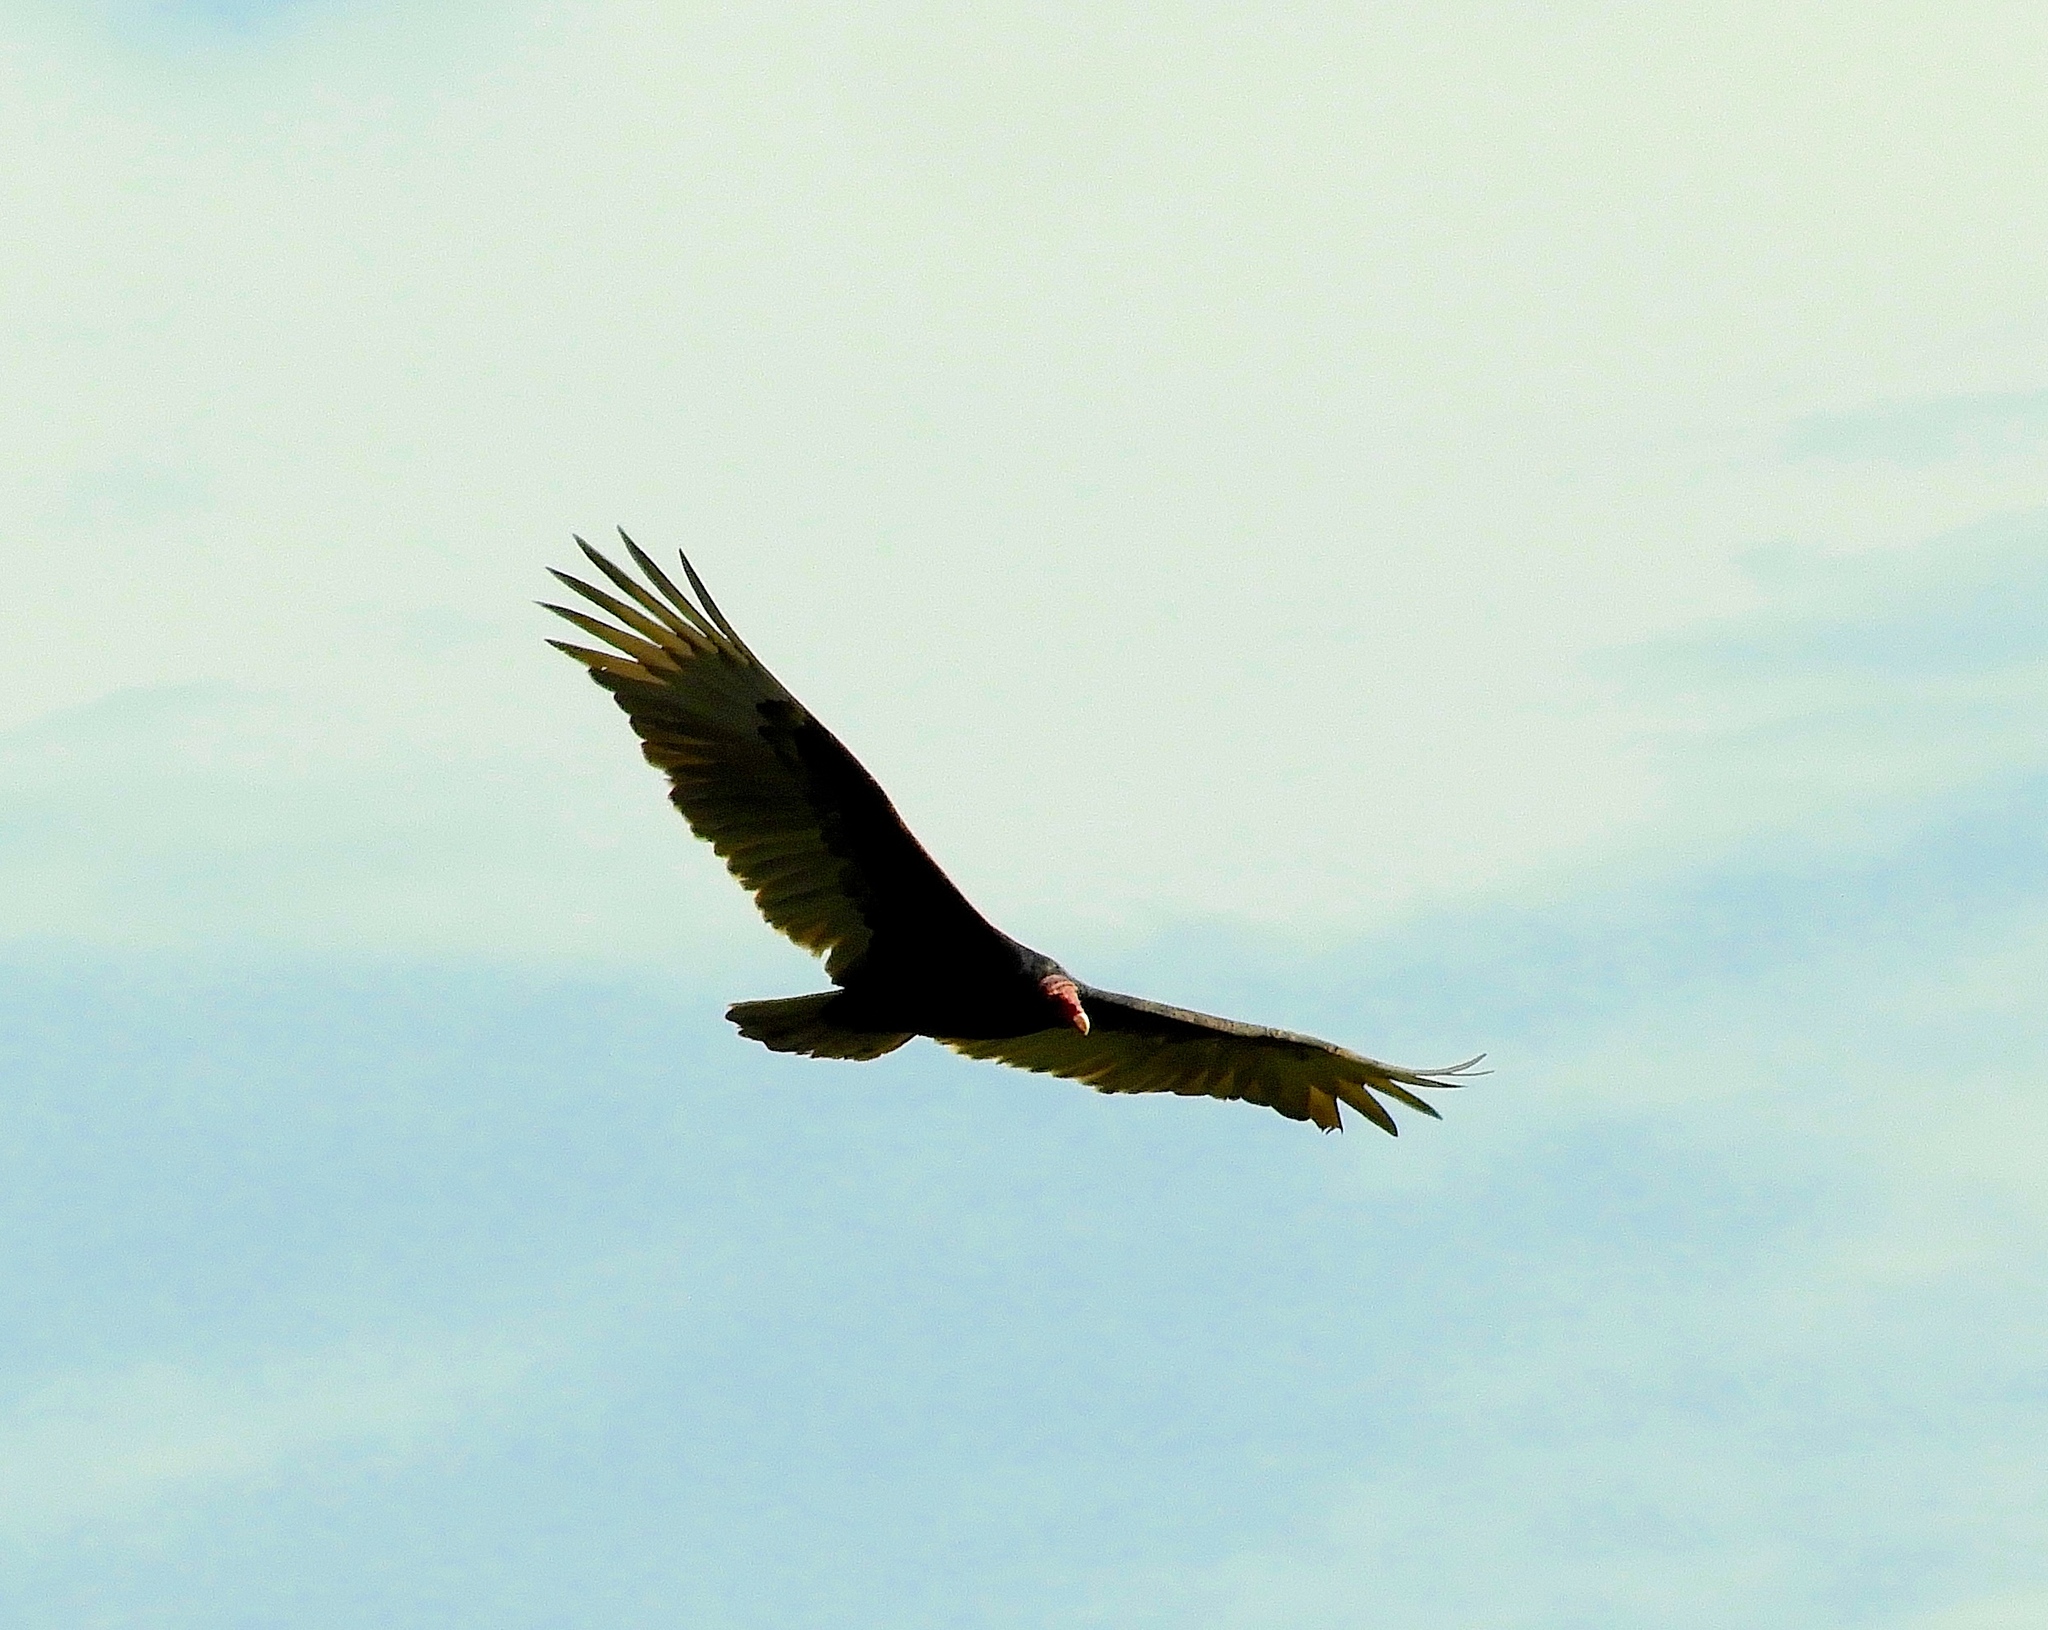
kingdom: Animalia
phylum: Chordata
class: Aves
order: Accipitriformes
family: Cathartidae
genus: Cathartes
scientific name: Cathartes aura
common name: Turkey vulture
